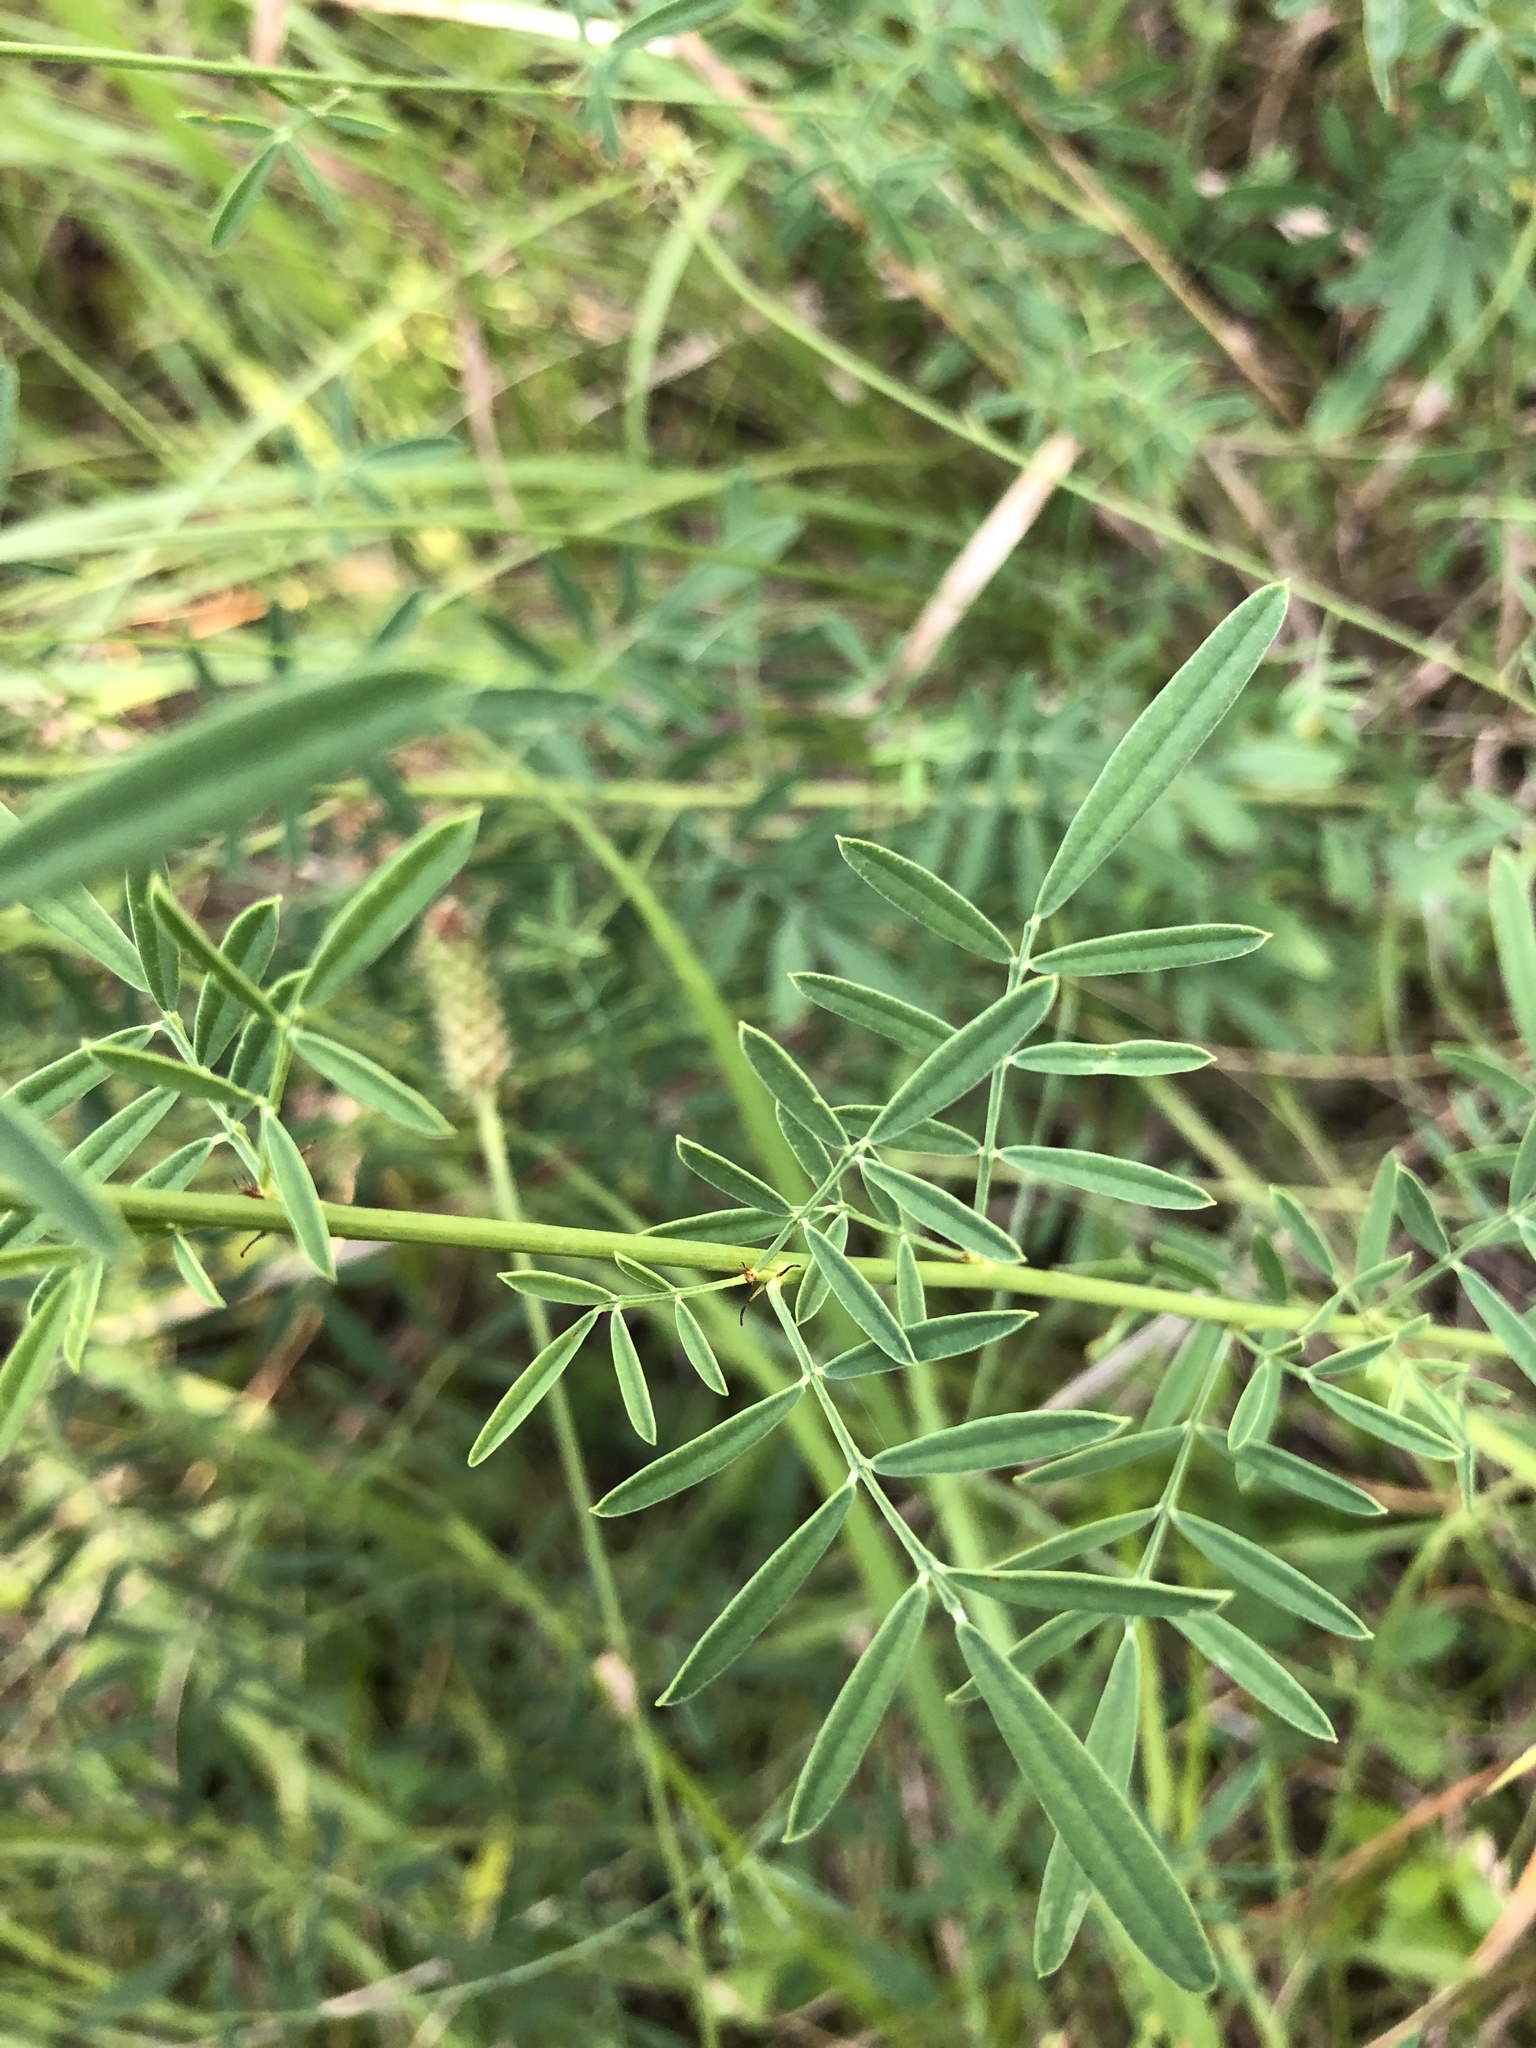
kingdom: Plantae
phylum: Tracheophyta
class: Magnoliopsida
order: Fabales
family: Fabaceae
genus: Dalea
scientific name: Dalea candida
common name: White prairie-clover
